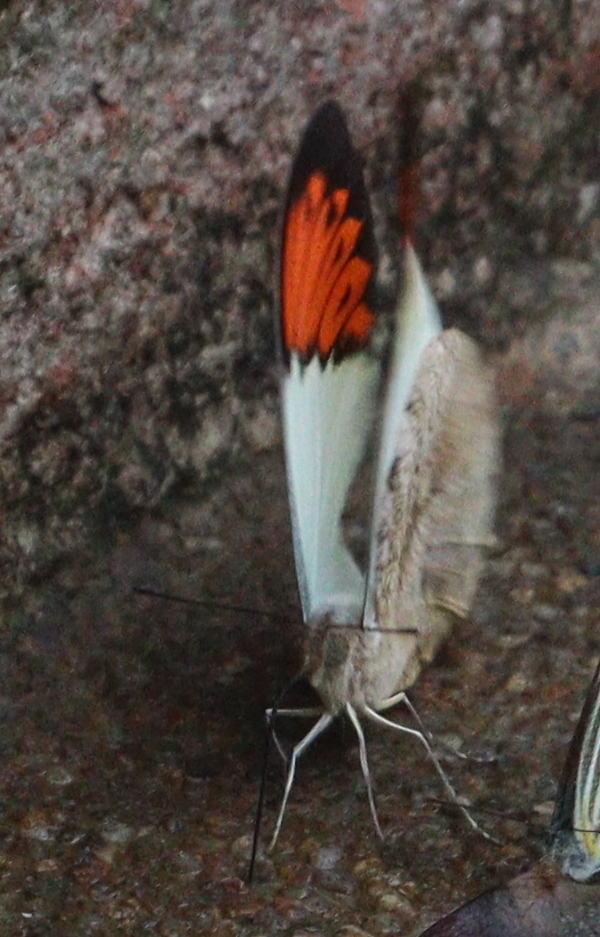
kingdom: Animalia
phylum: Arthropoda
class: Insecta
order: Lepidoptera
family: Pieridae
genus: Hebomoia
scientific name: Hebomoia glaucippe
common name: Great orange tip
